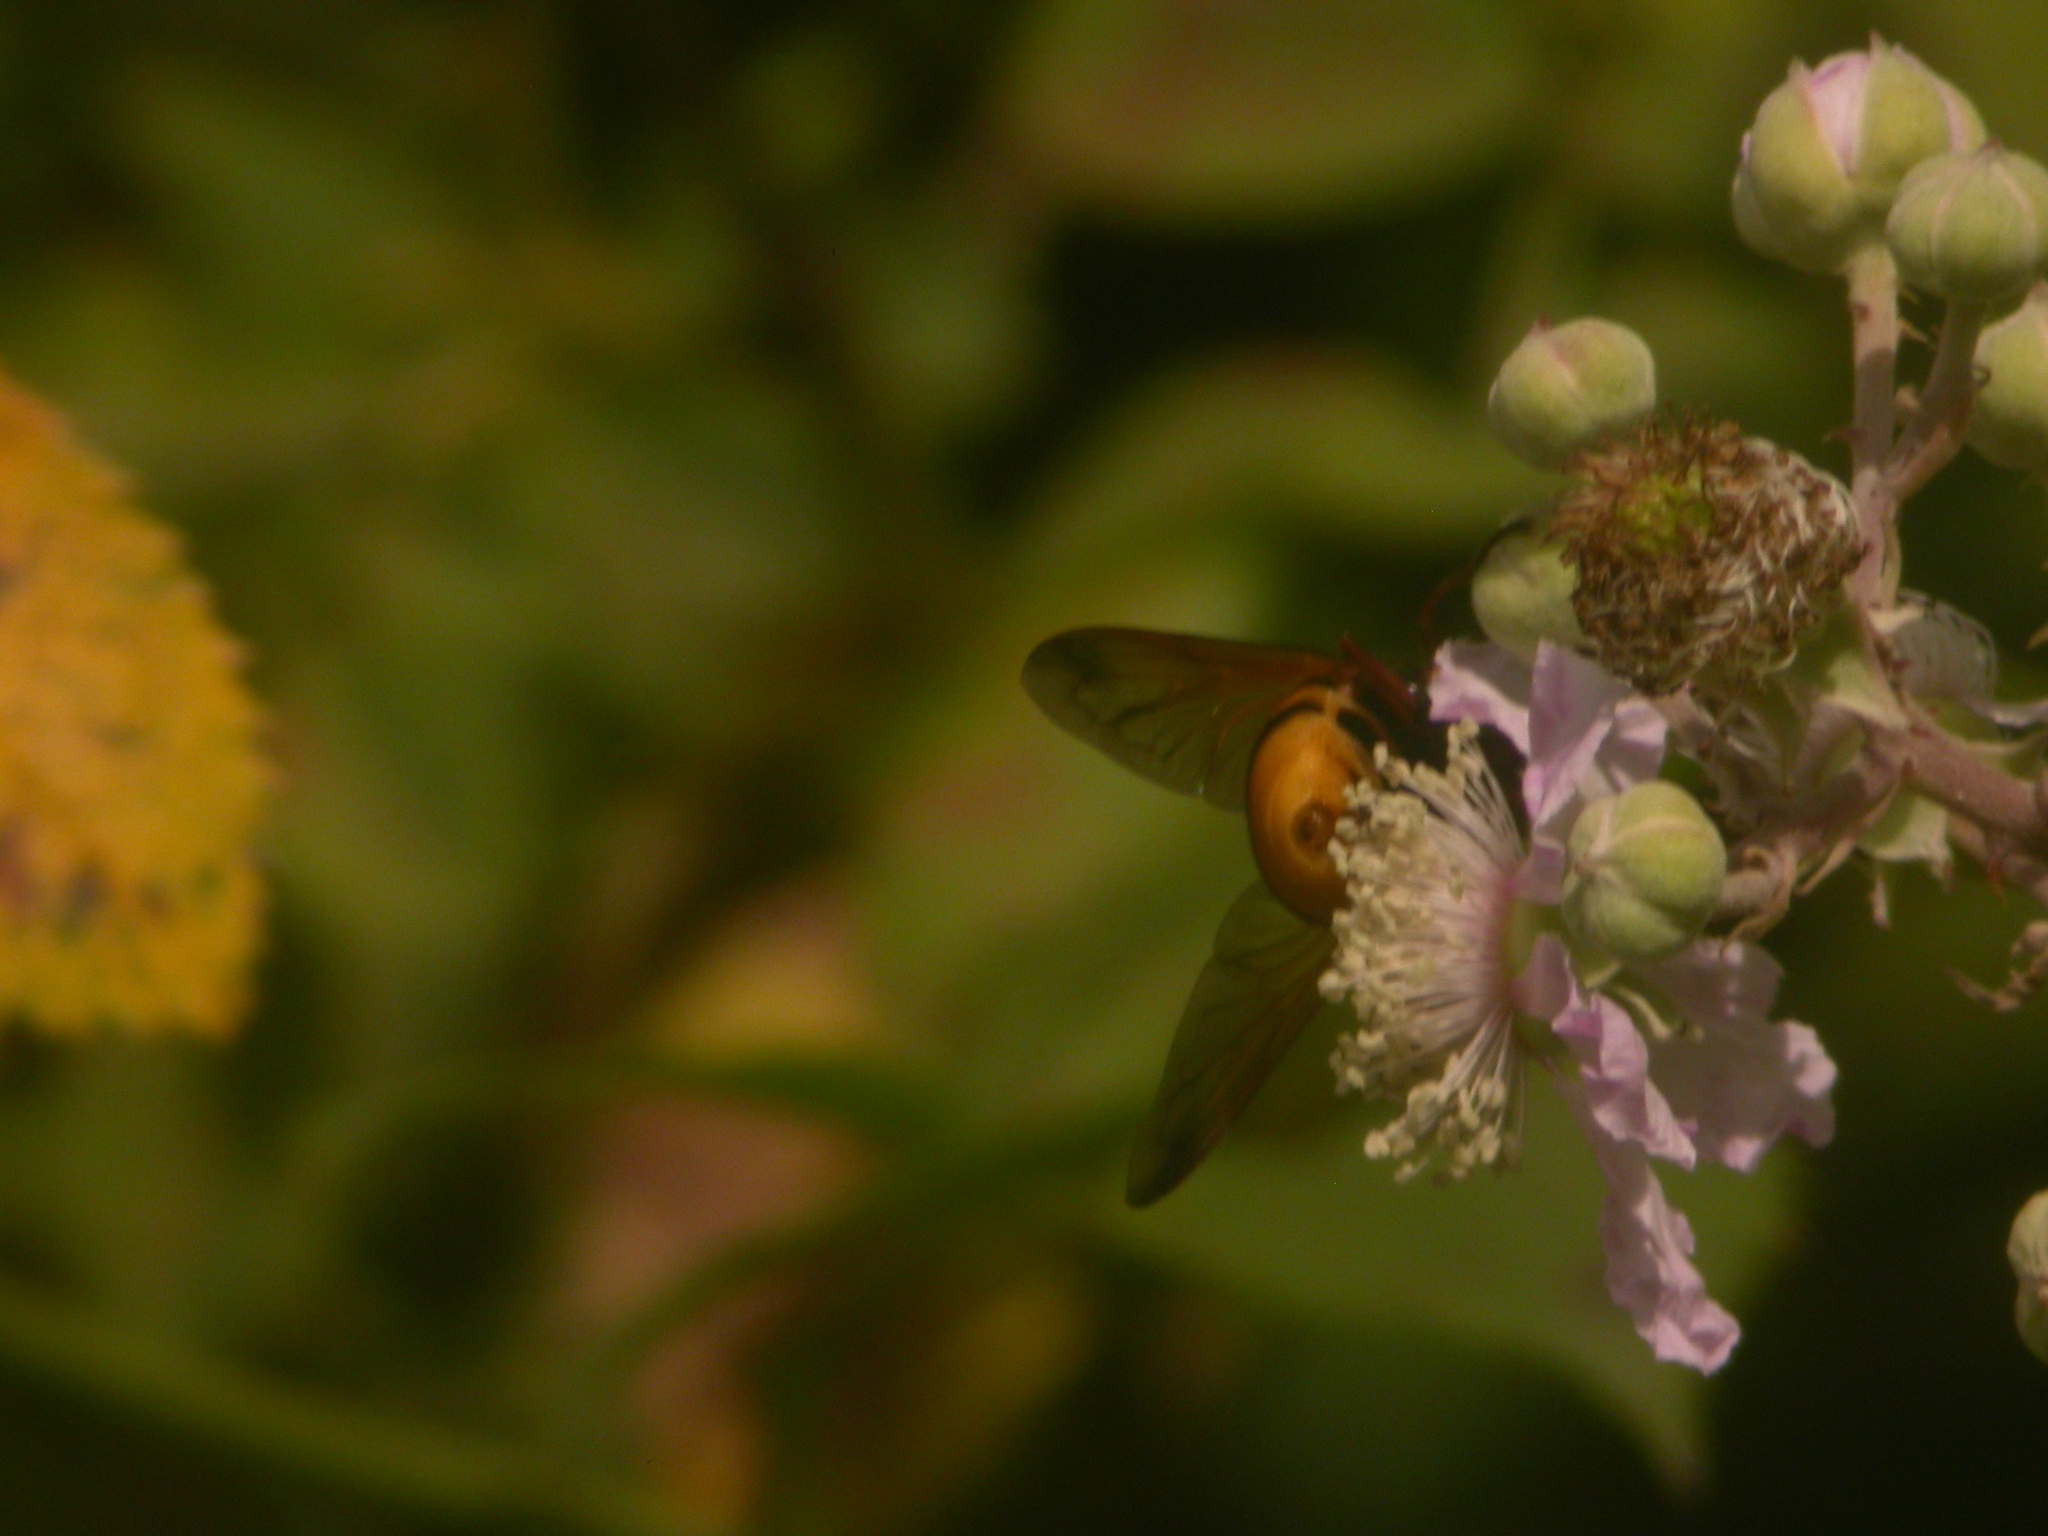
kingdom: Animalia
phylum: Arthropoda
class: Insecta
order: Diptera
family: Syrphidae
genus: Volucella
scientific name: Volucella zonaria
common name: Hornet hoverfly
